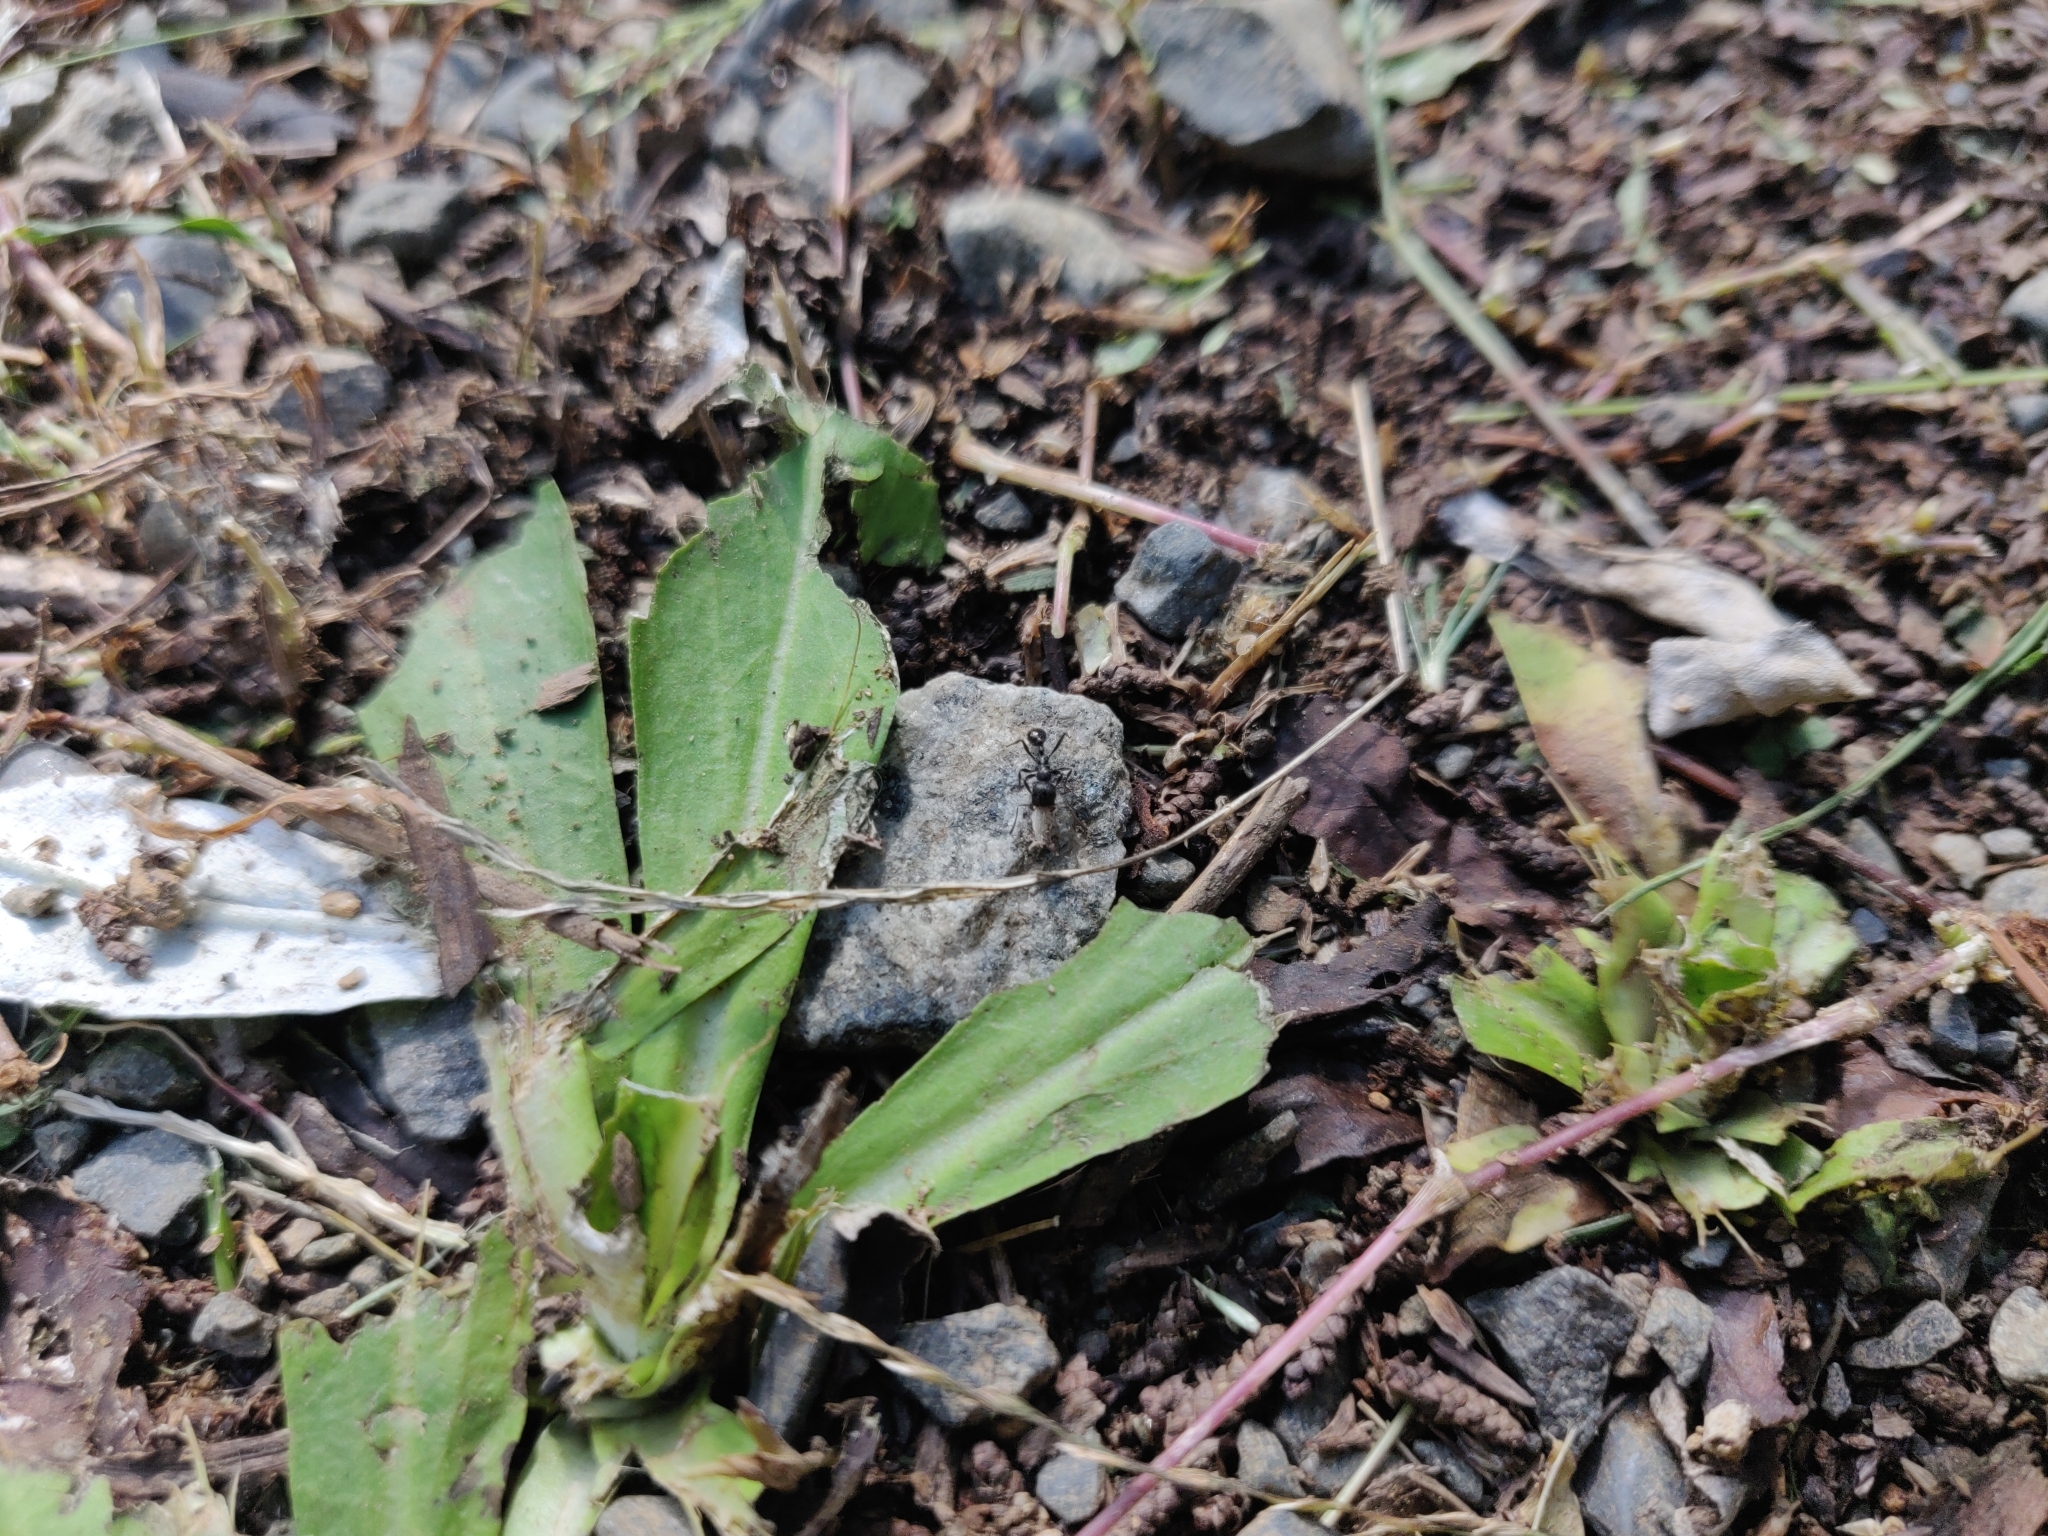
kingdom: Animalia
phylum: Arthropoda
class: Insecta
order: Hymenoptera
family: Formicidae
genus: Messor
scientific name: Messor aciculatus
